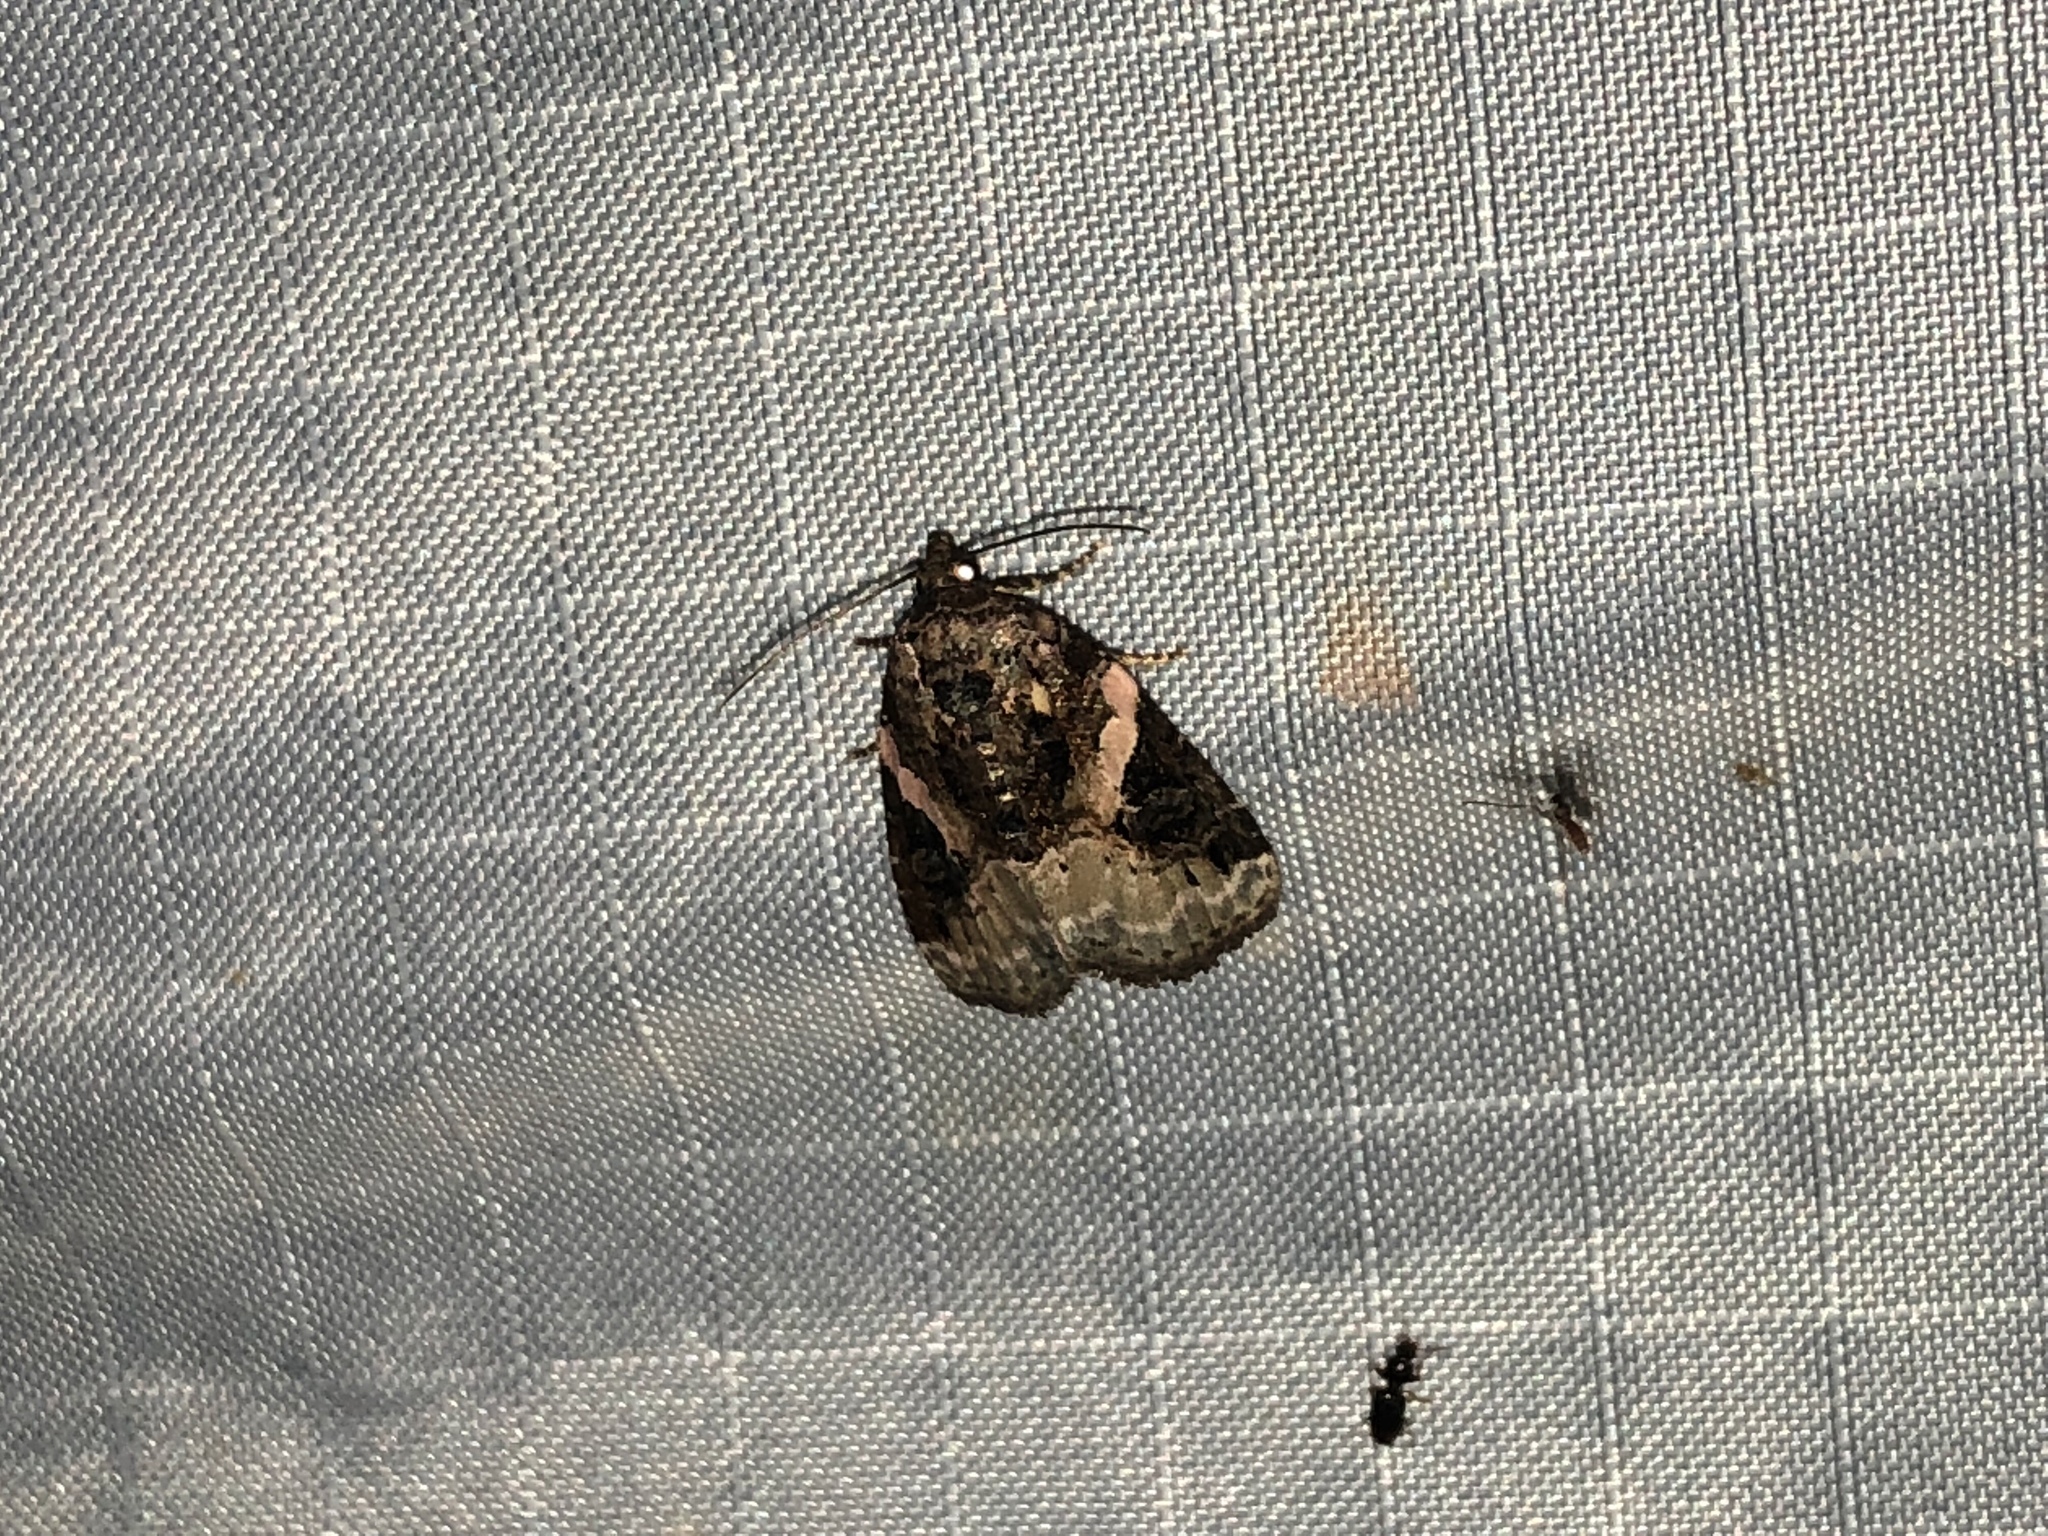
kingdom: Animalia
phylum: Arthropoda
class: Insecta
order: Lepidoptera
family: Noctuidae
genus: Pseudeustrotia
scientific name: Pseudeustrotia carneola
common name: Pink-barred lithacodia moth
